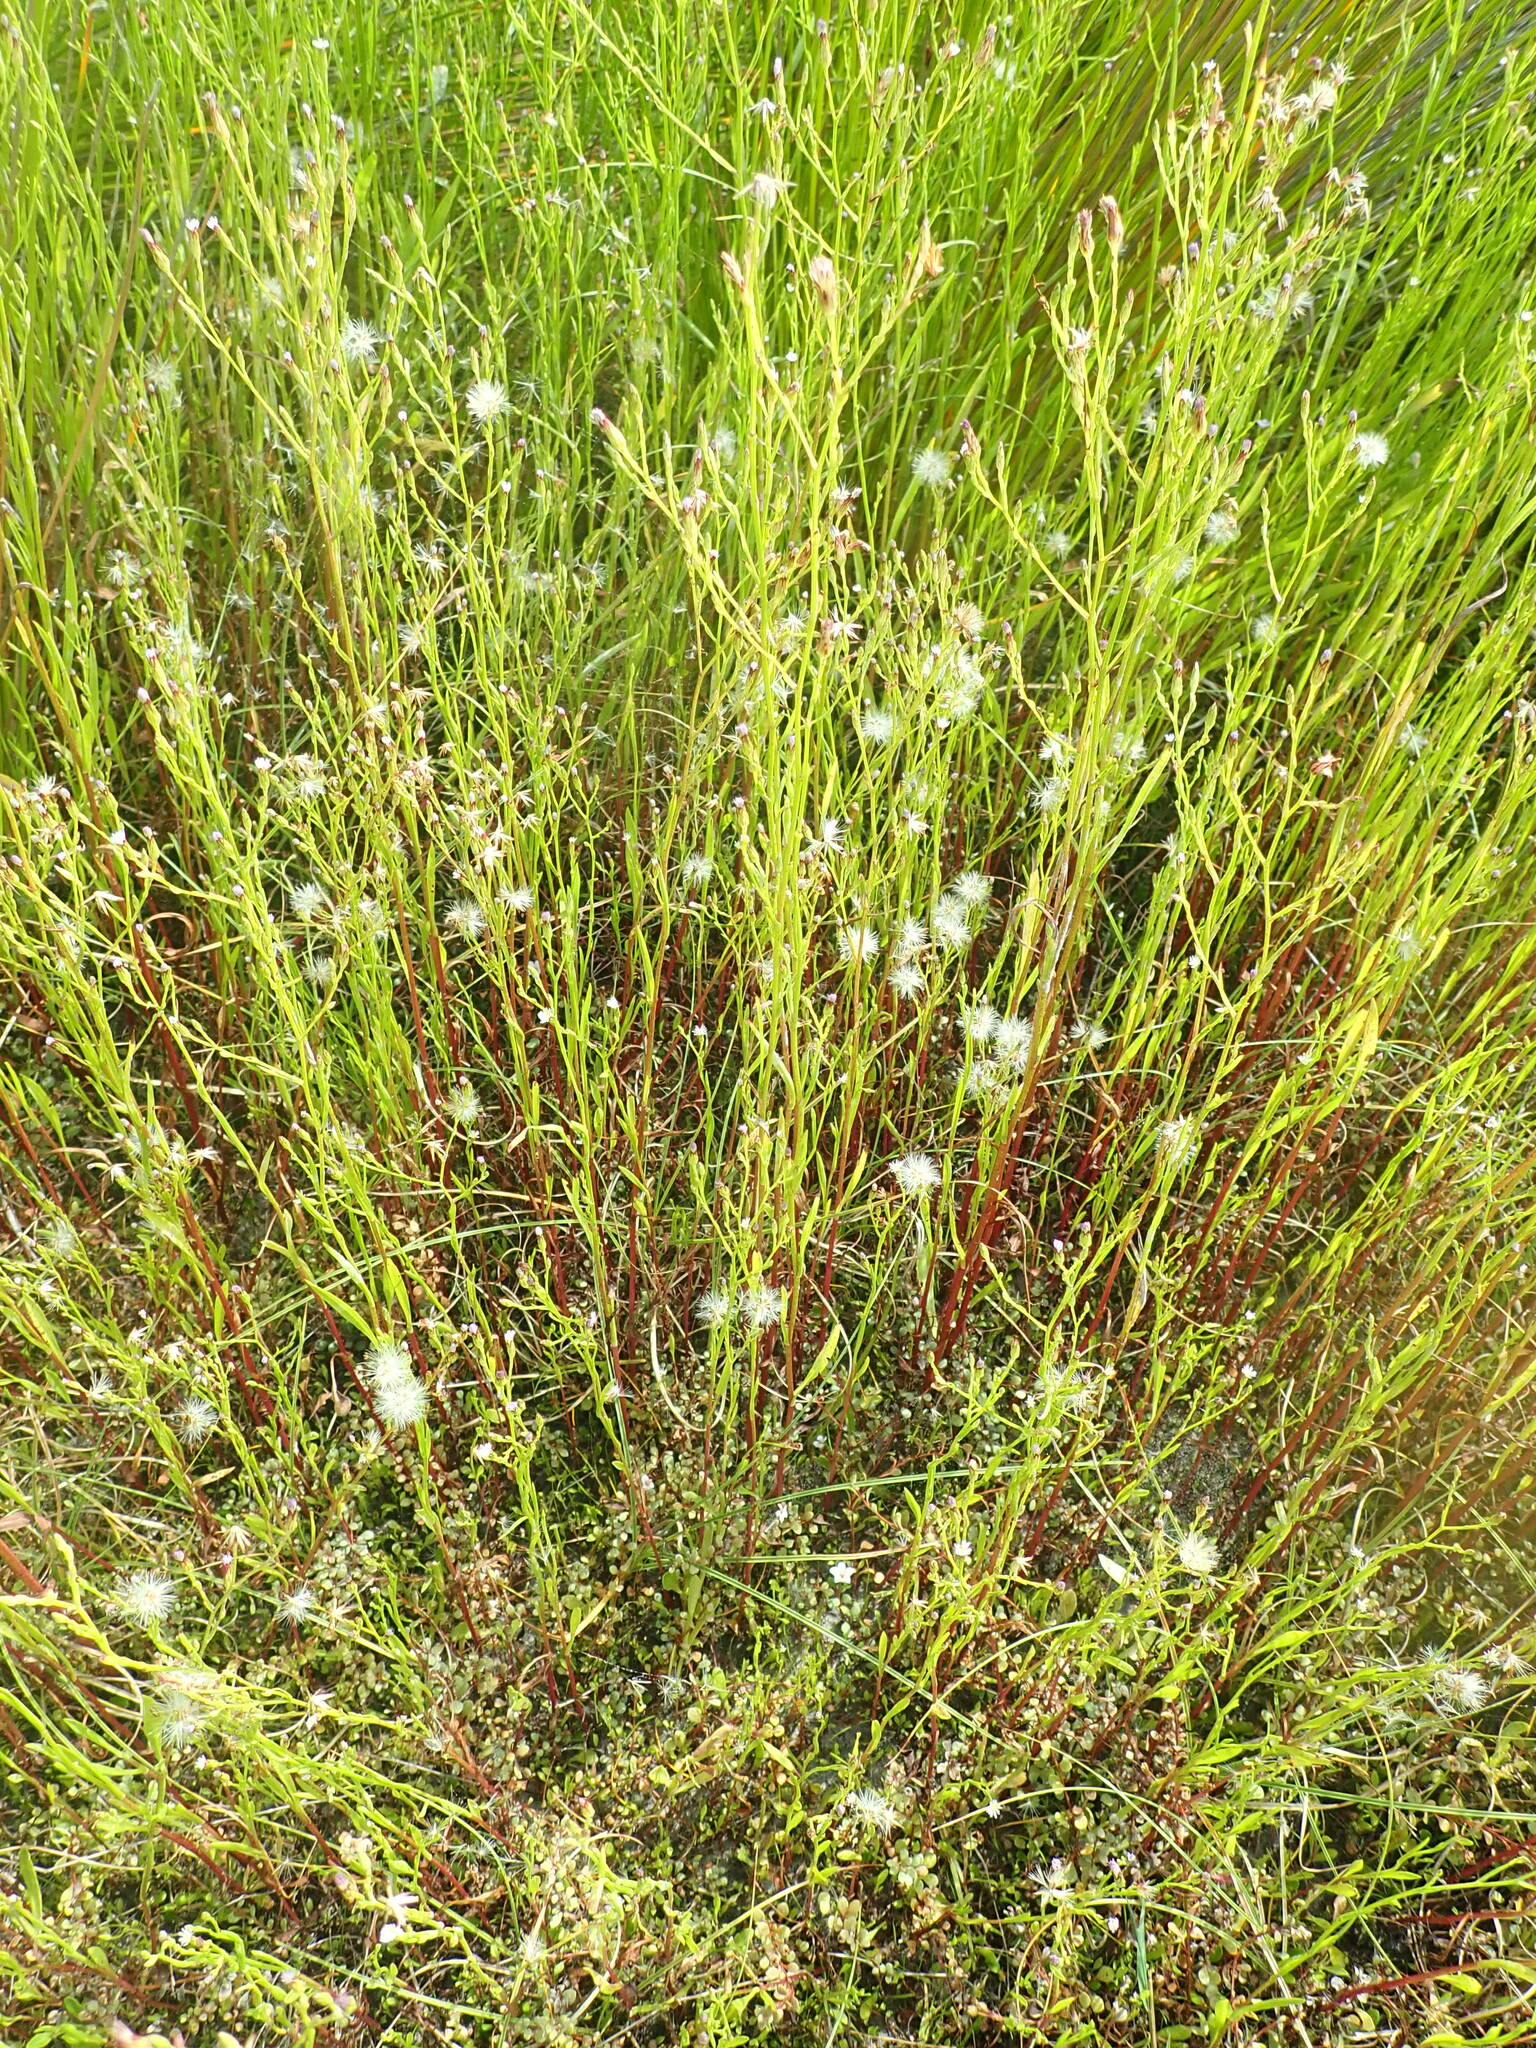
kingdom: Plantae
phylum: Tracheophyta
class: Magnoliopsida
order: Asterales
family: Asteraceae
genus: Symphyotrichum
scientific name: Symphyotrichum subulatum
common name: Annual saltmarsh aster
